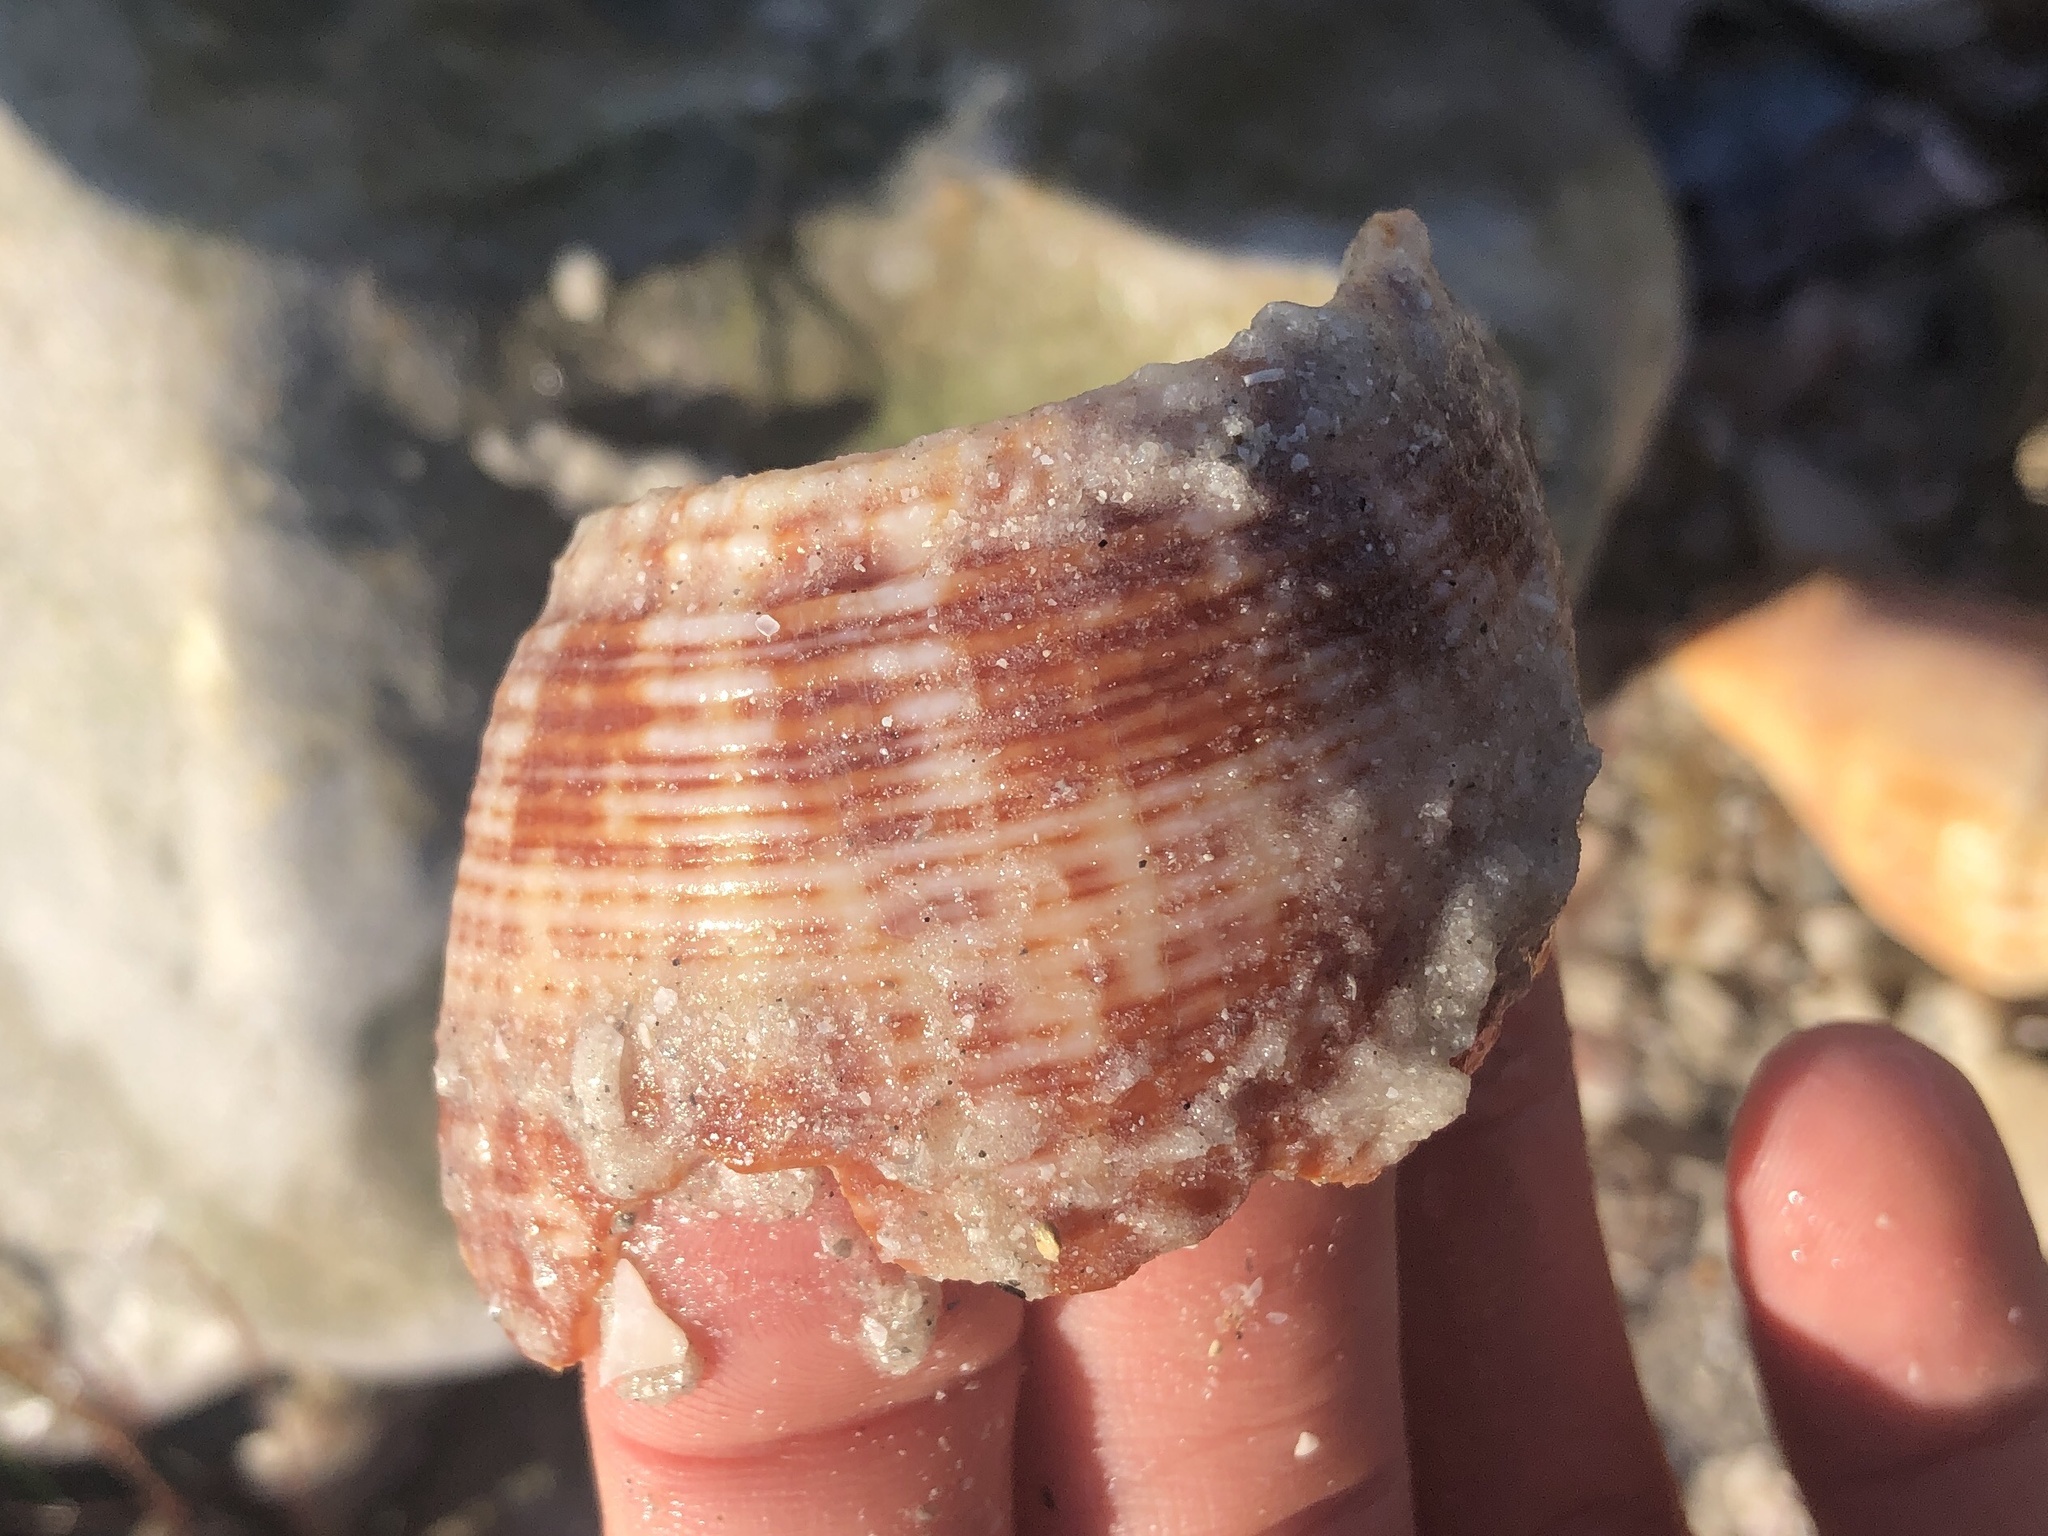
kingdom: Animalia
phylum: Mollusca
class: Gastropoda
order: Neogastropoda
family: Fasciolariidae
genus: Fasciolaria
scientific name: Fasciolaria tulipa
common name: True tulip
